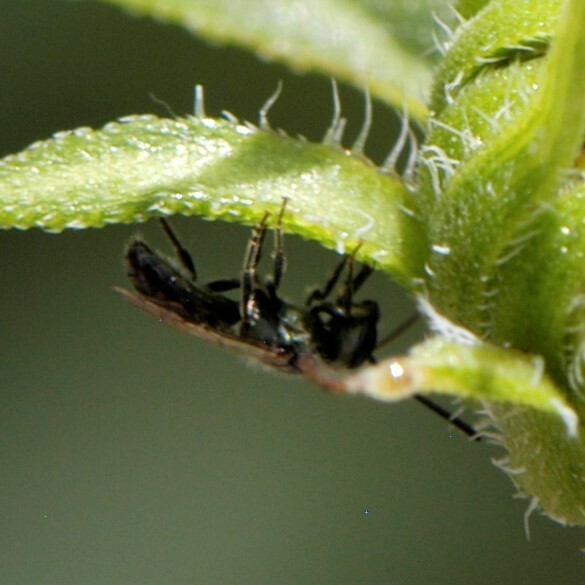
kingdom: Animalia
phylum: Arthropoda
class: Insecta
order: Hymenoptera
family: Halictidae
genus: Dialictus
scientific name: Dialictus
